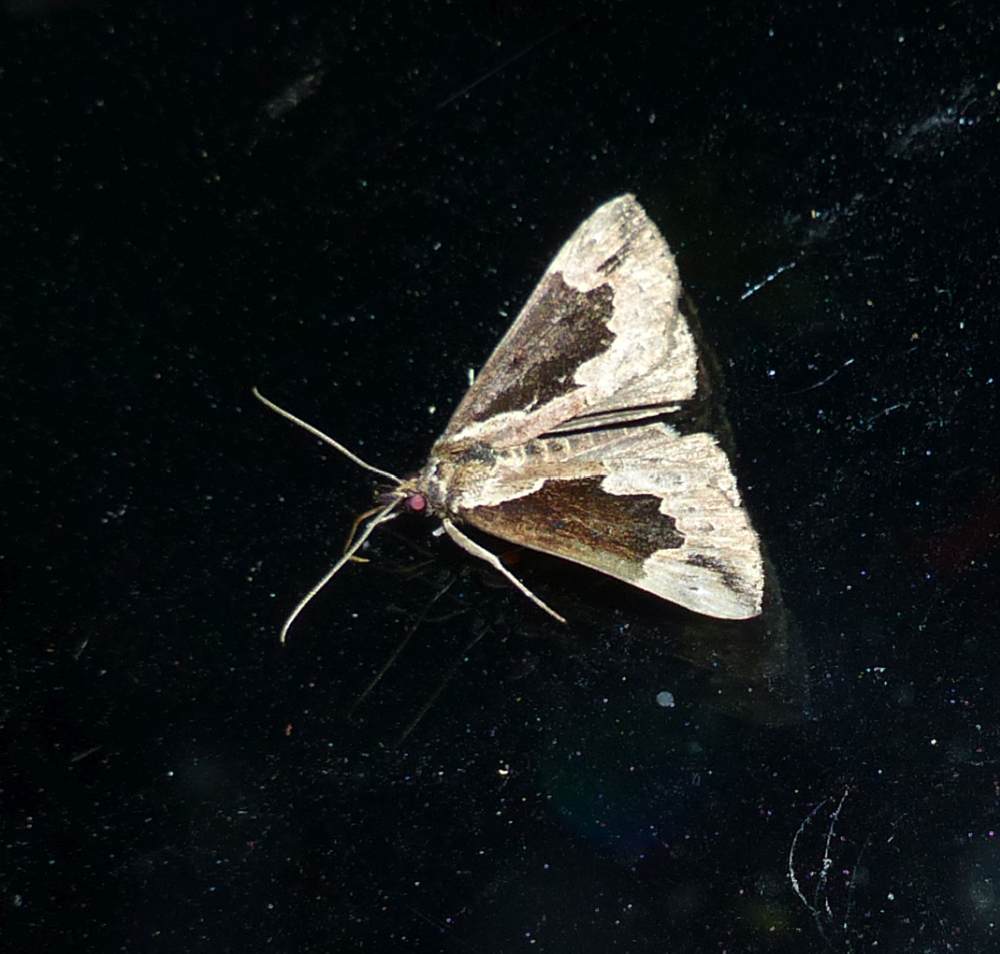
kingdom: Animalia
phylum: Arthropoda
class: Insecta
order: Lepidoptera
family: Erebidae
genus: Hypena
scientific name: Hypena baltimoralis
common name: Baltimore snout
